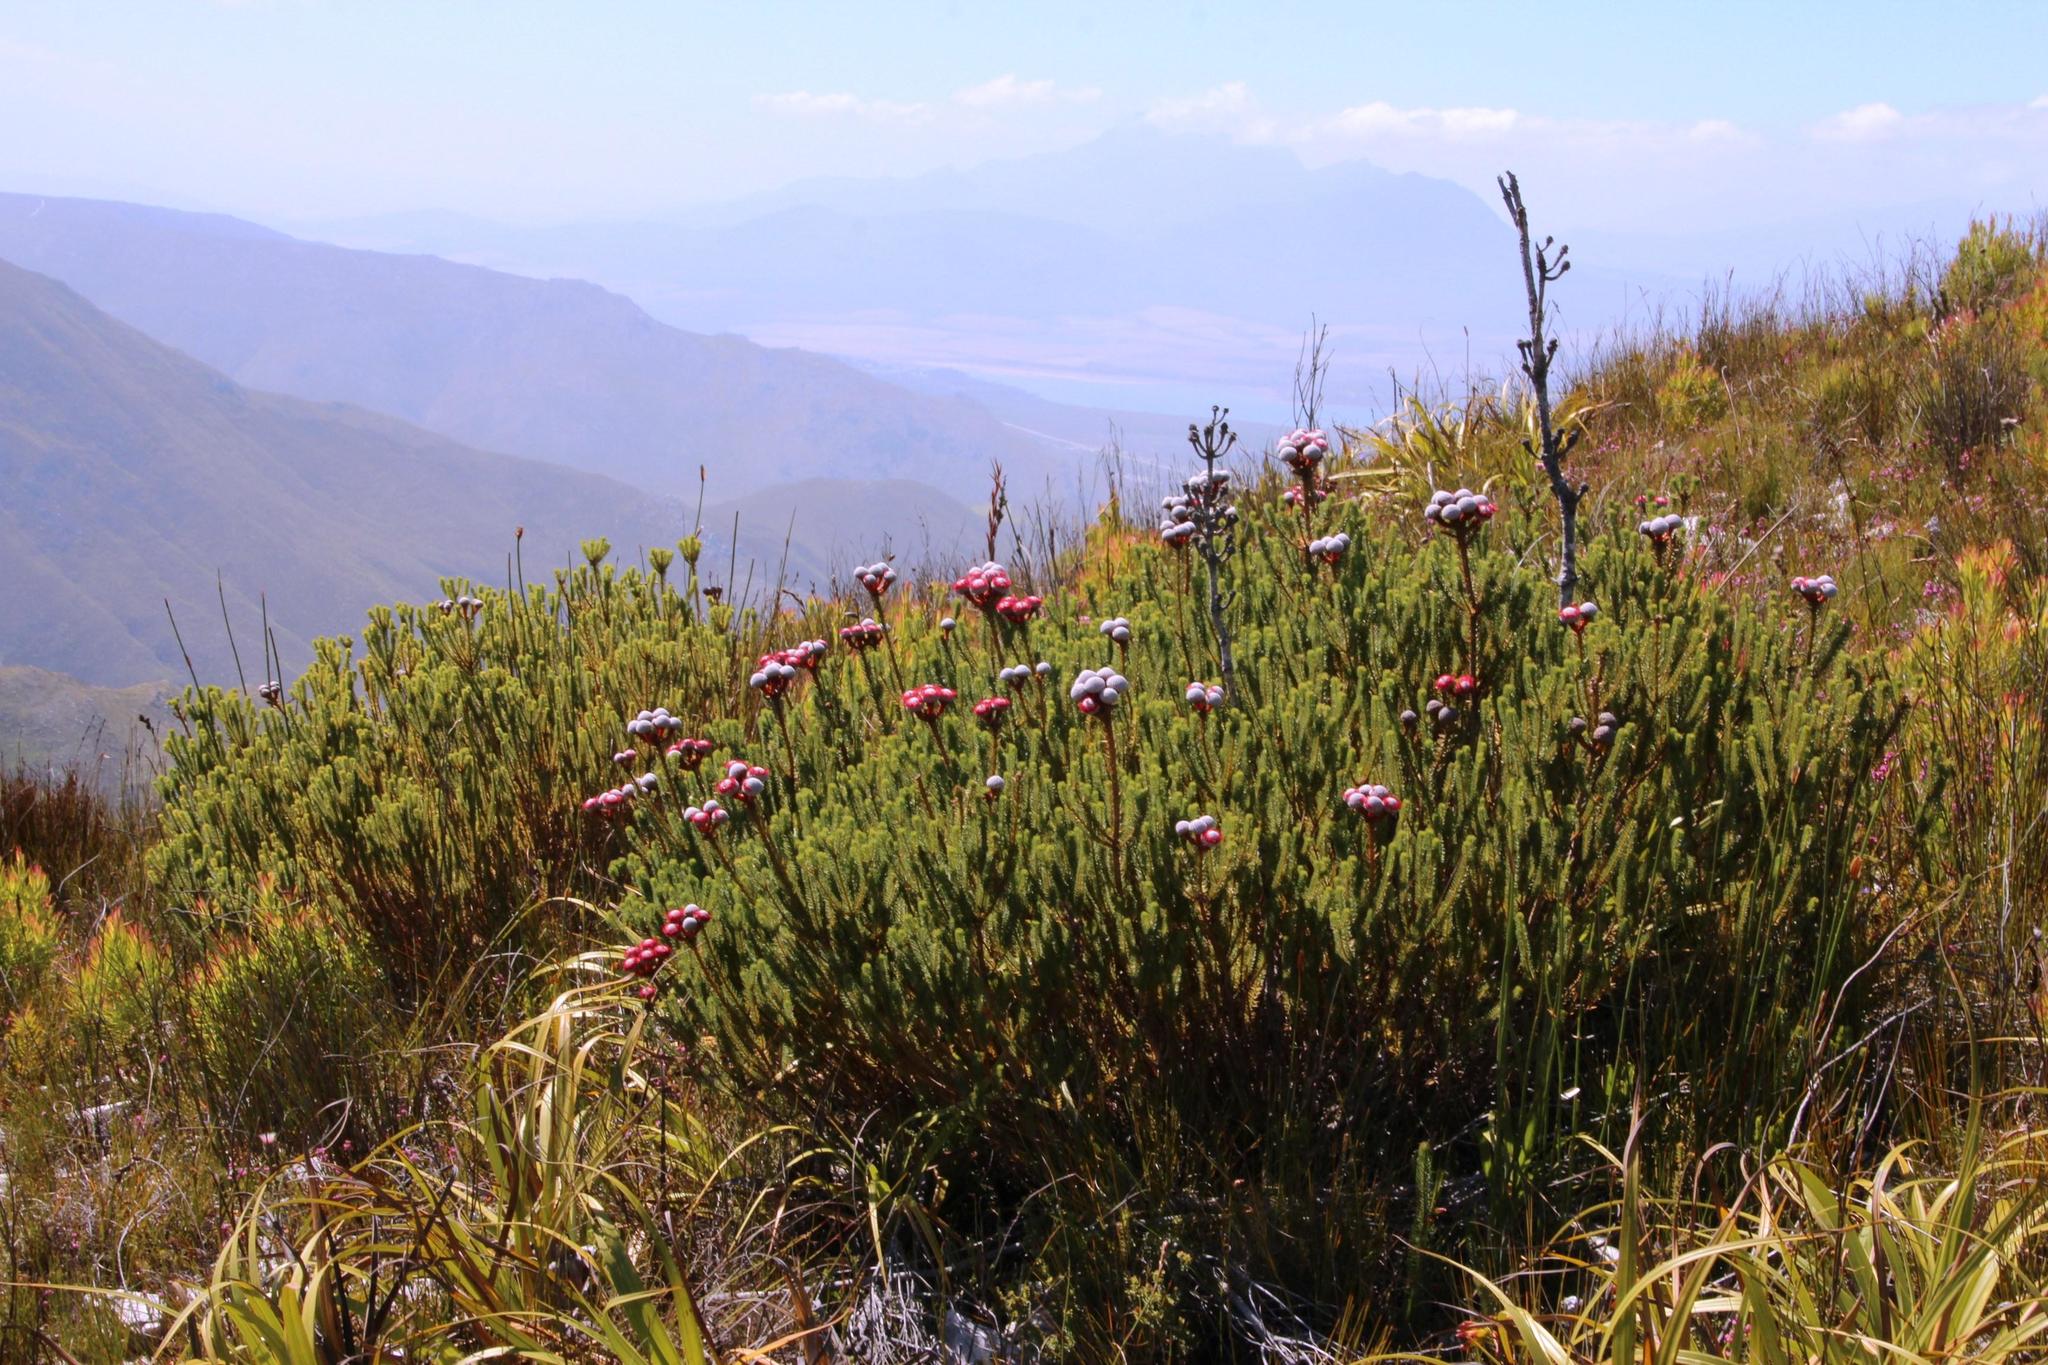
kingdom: Plantae
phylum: Tracheophyta
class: Magnoliopsida
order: Bruniales
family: Bruniaceae
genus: Berzelia
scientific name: Berzelia stokoei
